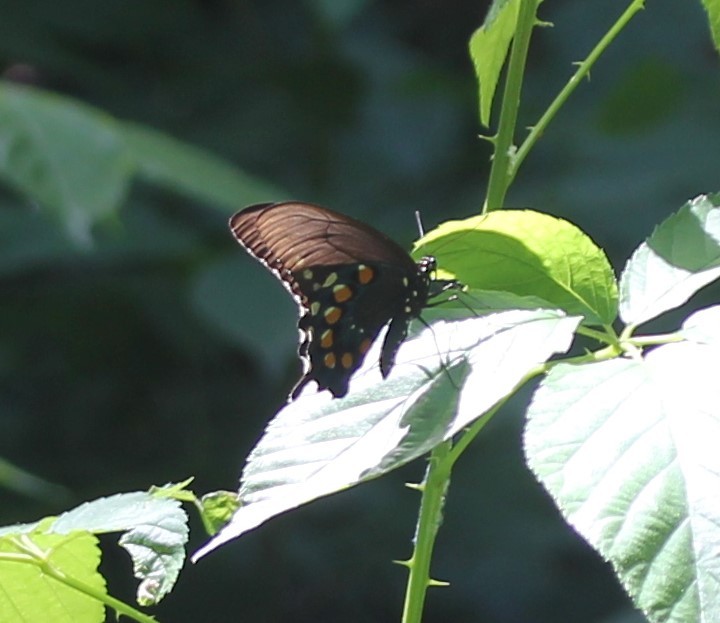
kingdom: Animalia
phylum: Arthropoda
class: Insecta
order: Lepidoptera
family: Papilionidae
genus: Battus
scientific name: Battus philenor
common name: Pipevine swallowtail
